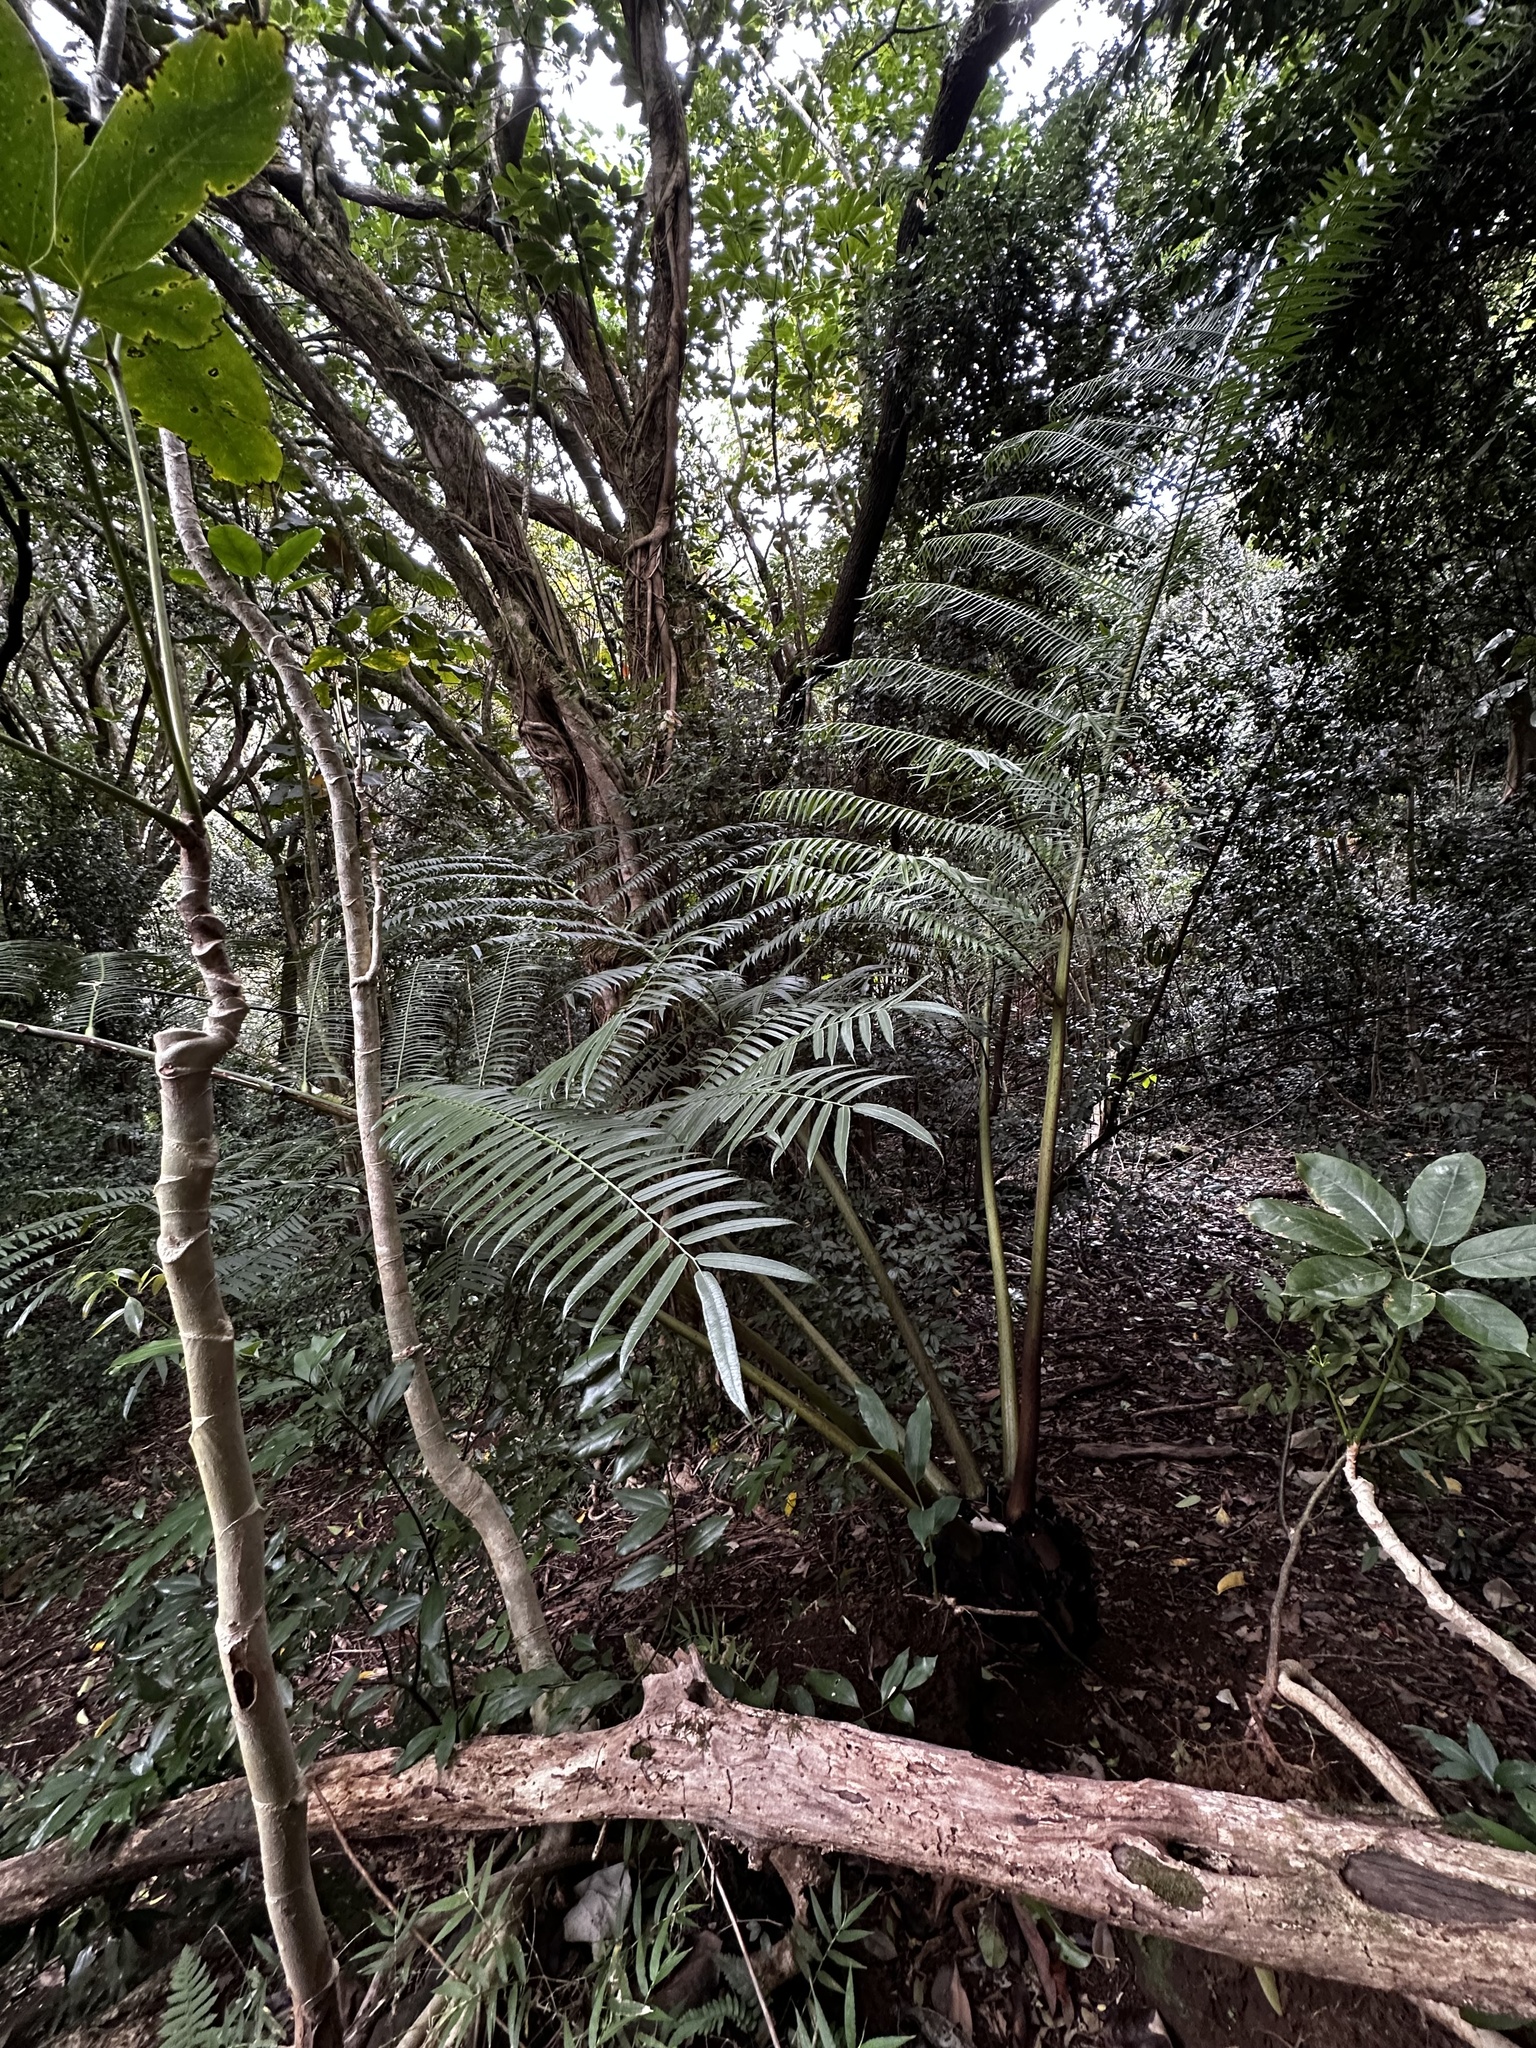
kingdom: Plantae
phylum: Tracheophyta
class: Polypodiopsida
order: Marattiales
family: Marattiaceae
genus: Angiopteris
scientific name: Angiopteris evecta
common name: Mule's-foot fern
